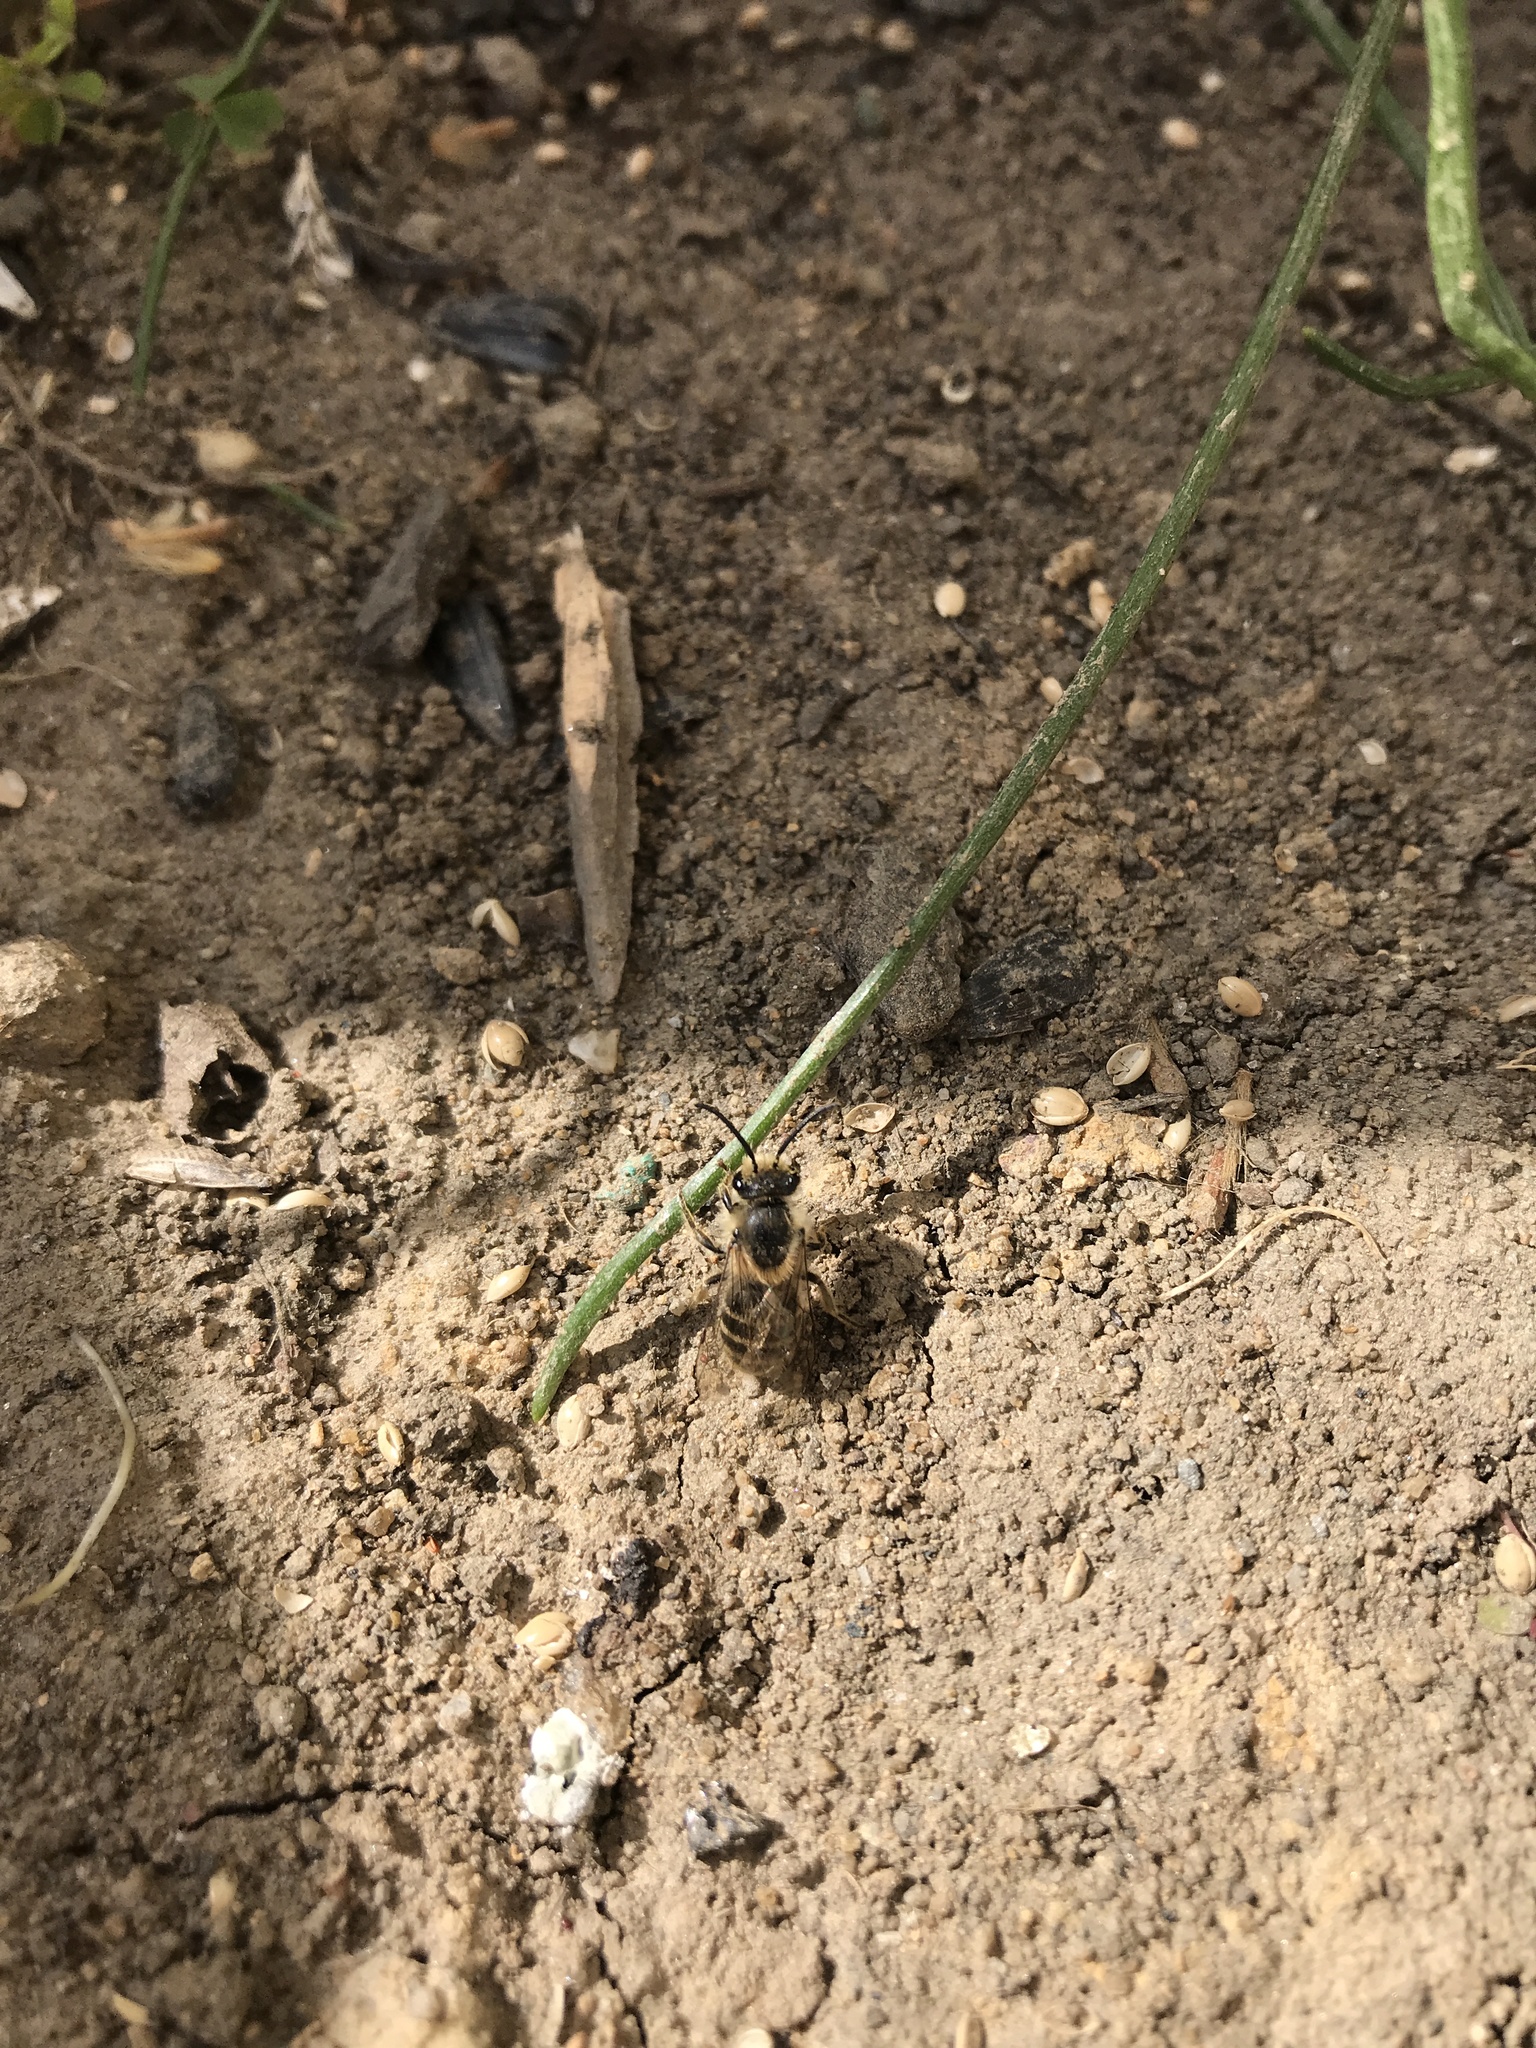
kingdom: Animalia
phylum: Arthropoda
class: Insecta
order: Hymenoptera
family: Colletidae
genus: Colletes
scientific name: Colletes inaequalis
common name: Unequal cellophane bee
